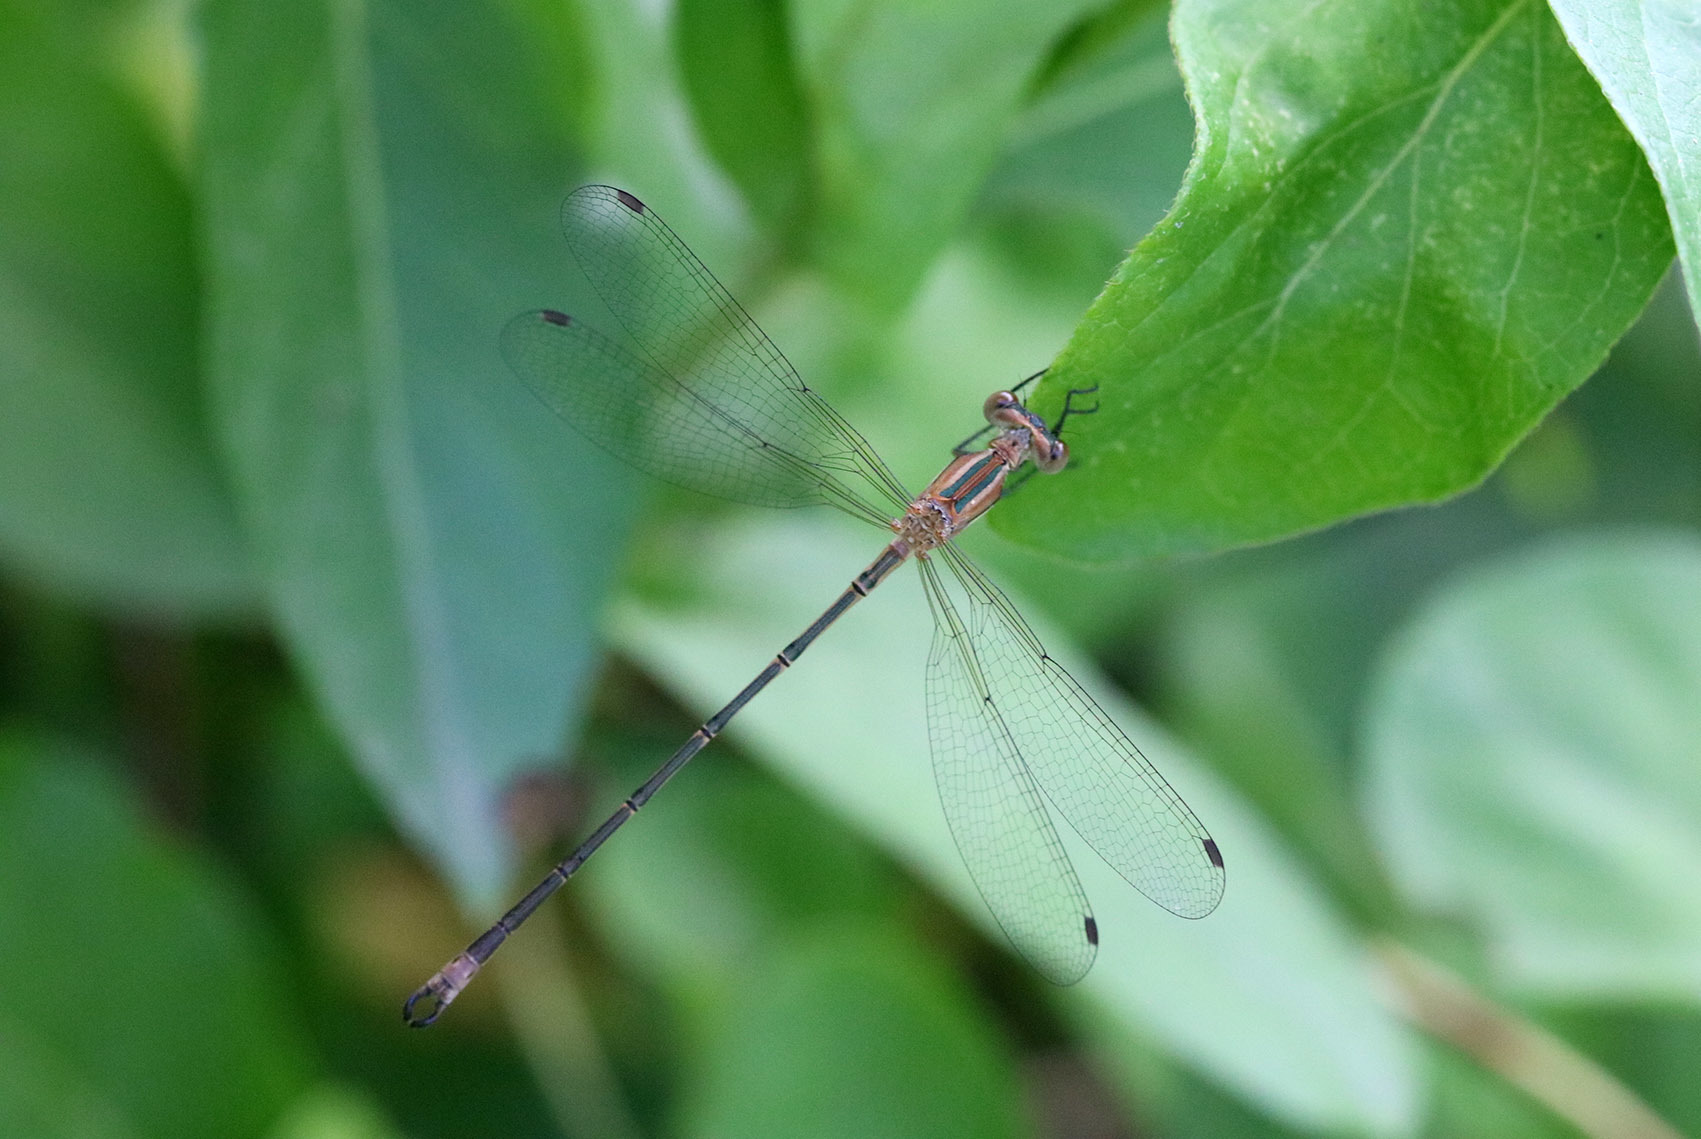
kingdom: Animalia
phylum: Arthropoda
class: Insecta
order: Odonata
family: Lestidae
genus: Lestes
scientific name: Lestes undulatus
